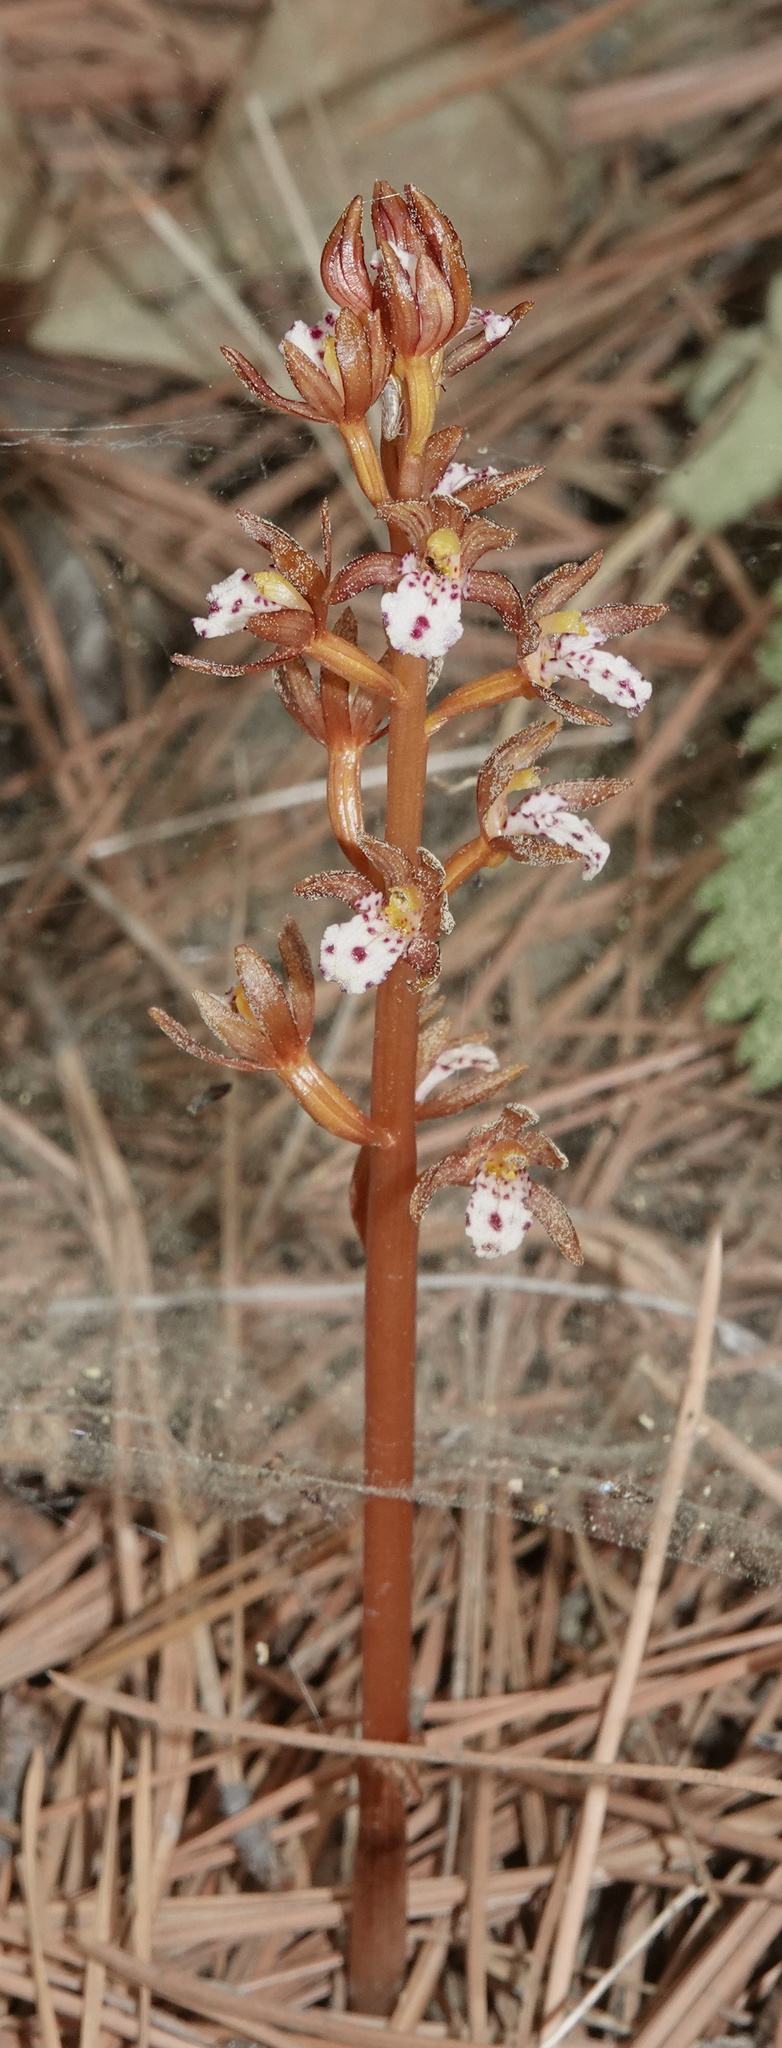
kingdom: Plantae
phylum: Tracheophyta
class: Liliopsida
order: Asparagales
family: Orchidaceae
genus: Corallorhiza
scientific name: Corallorhiza maculata
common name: Spotted coralroot
